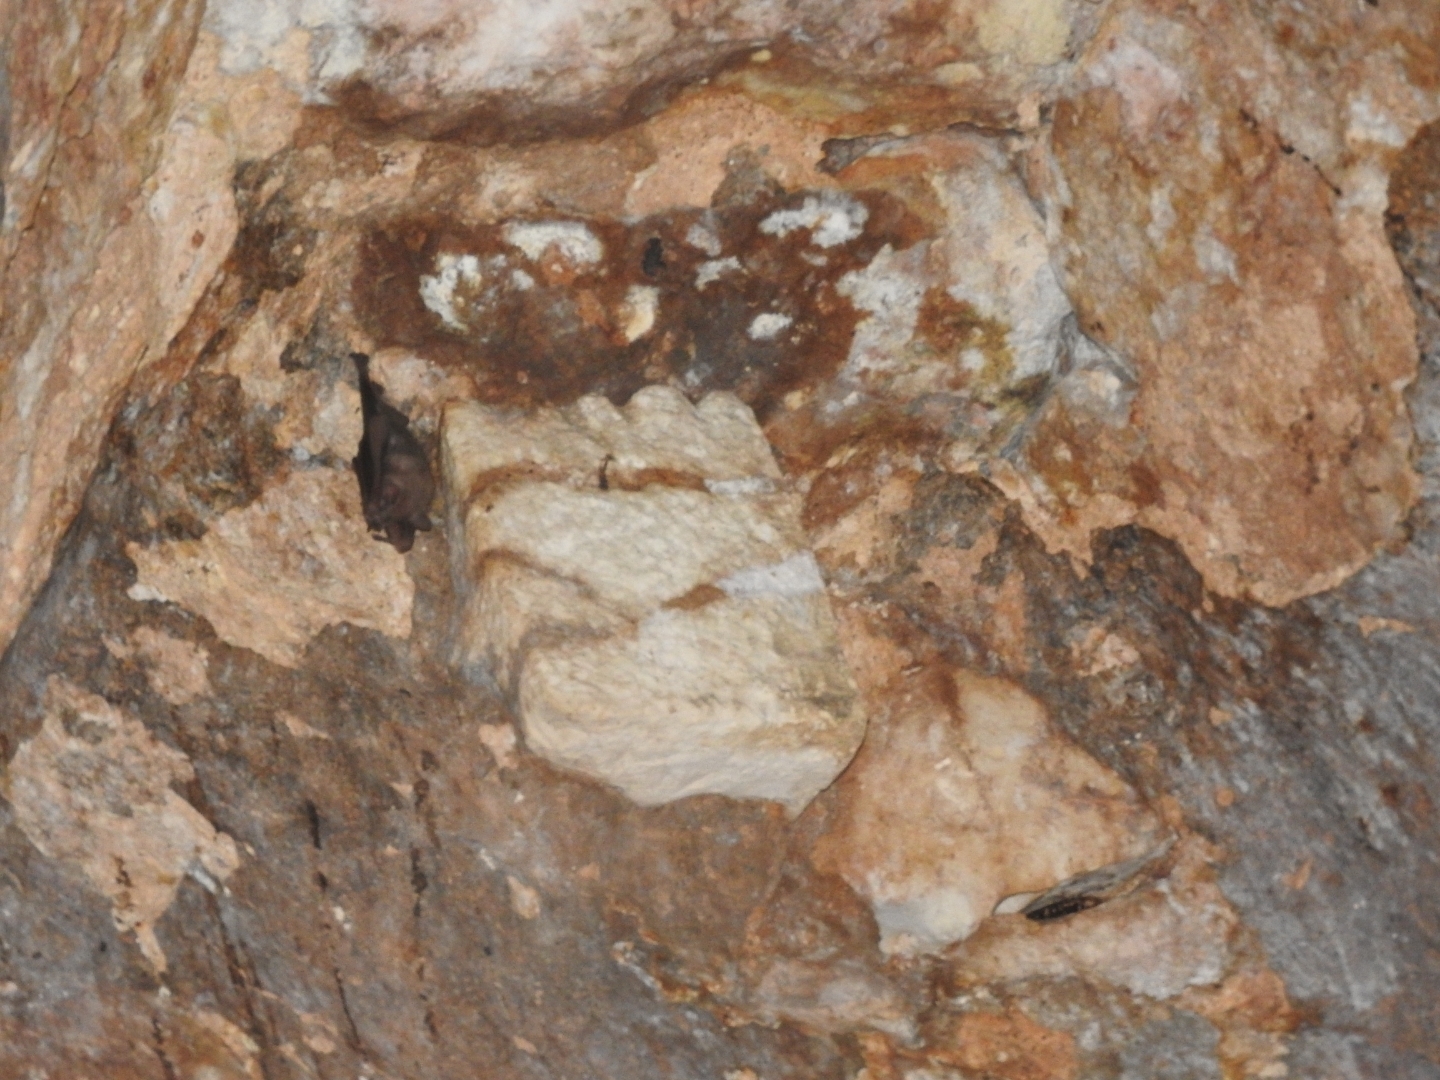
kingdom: Animalia
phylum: Chordata
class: Mammalia
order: Chiroptera
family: Phyllostomidae
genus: Artibeus
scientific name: Artibeus jamaicensis
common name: Jamaican fruit-eating bat
